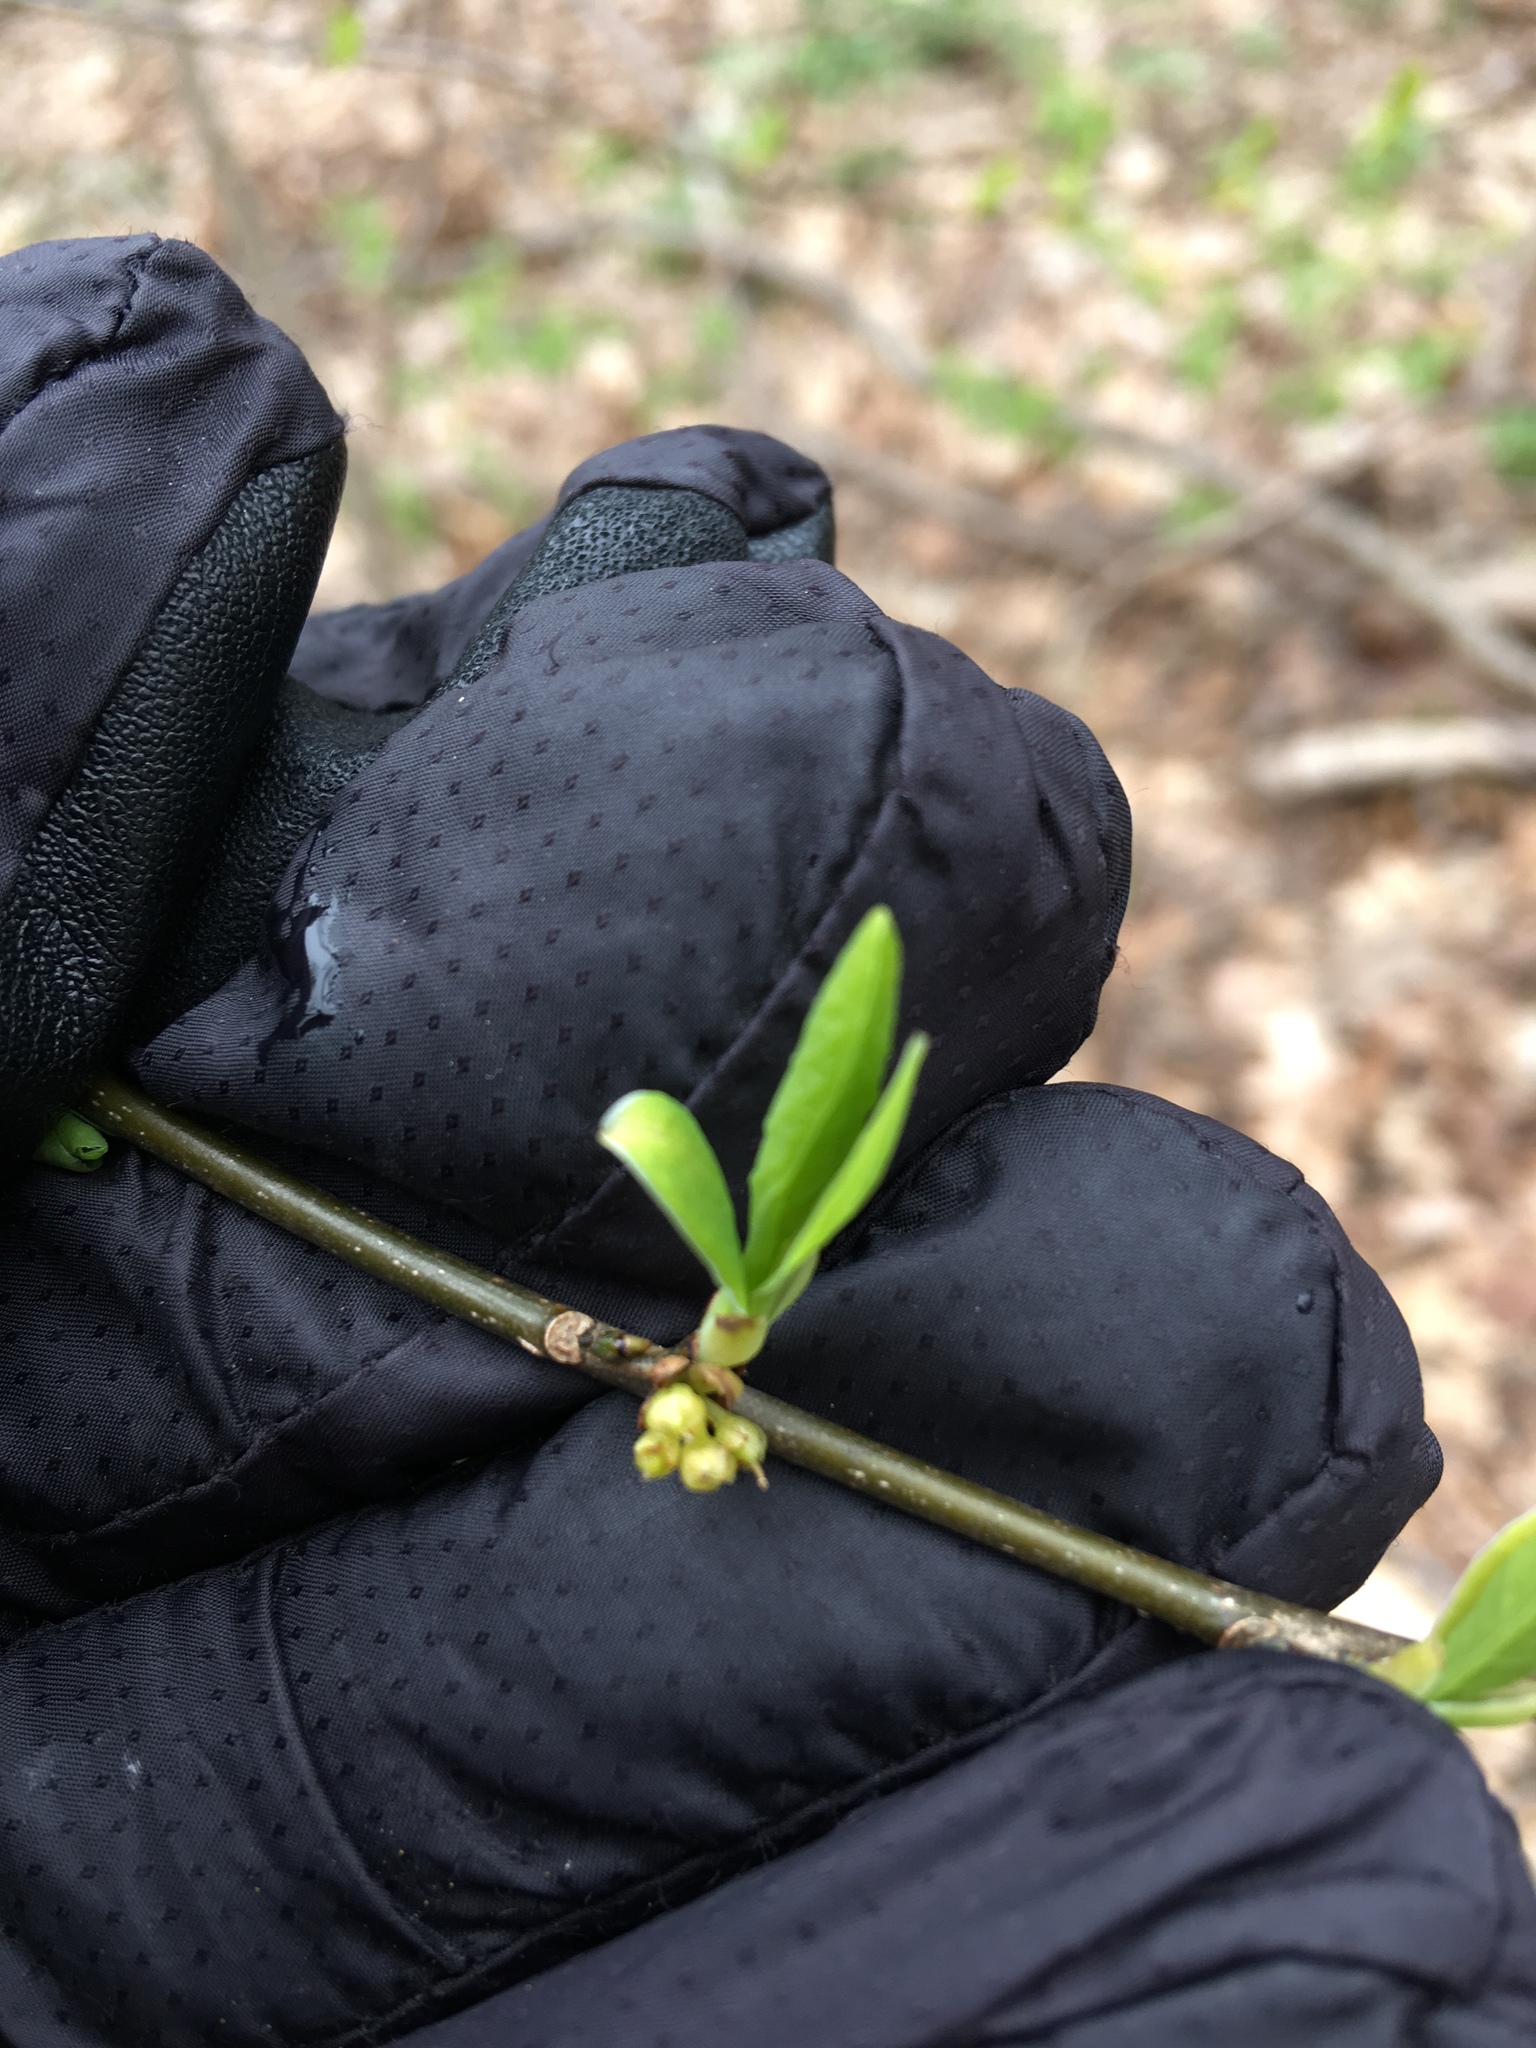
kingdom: Plantae
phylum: Tracheophyta
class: Magnoliopsida
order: Laurales
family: Lauraceae
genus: Lindera
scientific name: Lindera benzoin
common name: Spicebush
